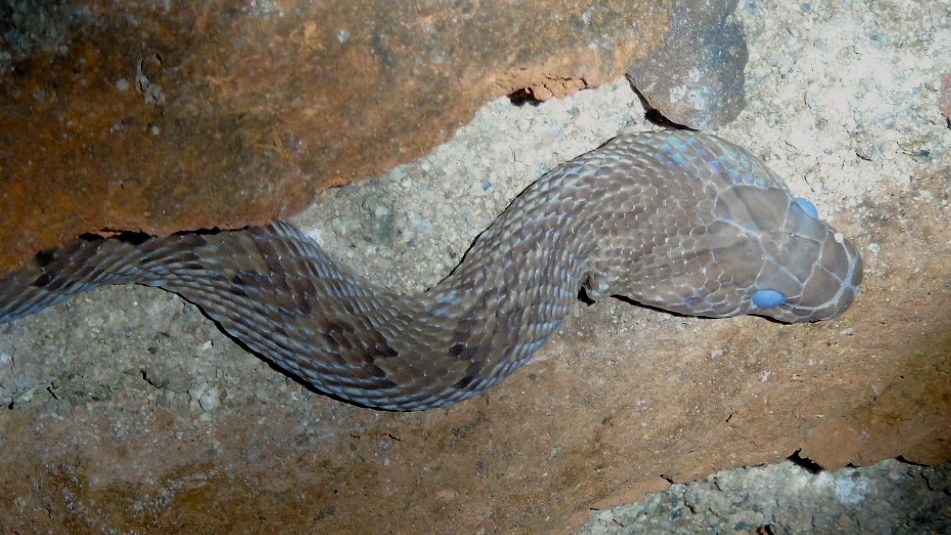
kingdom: Animalia
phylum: Chordata
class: Squamata
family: Colubridae
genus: Trimorphodon
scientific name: Trimorphodon paucimaculatus
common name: Sinaloan lyresnake
